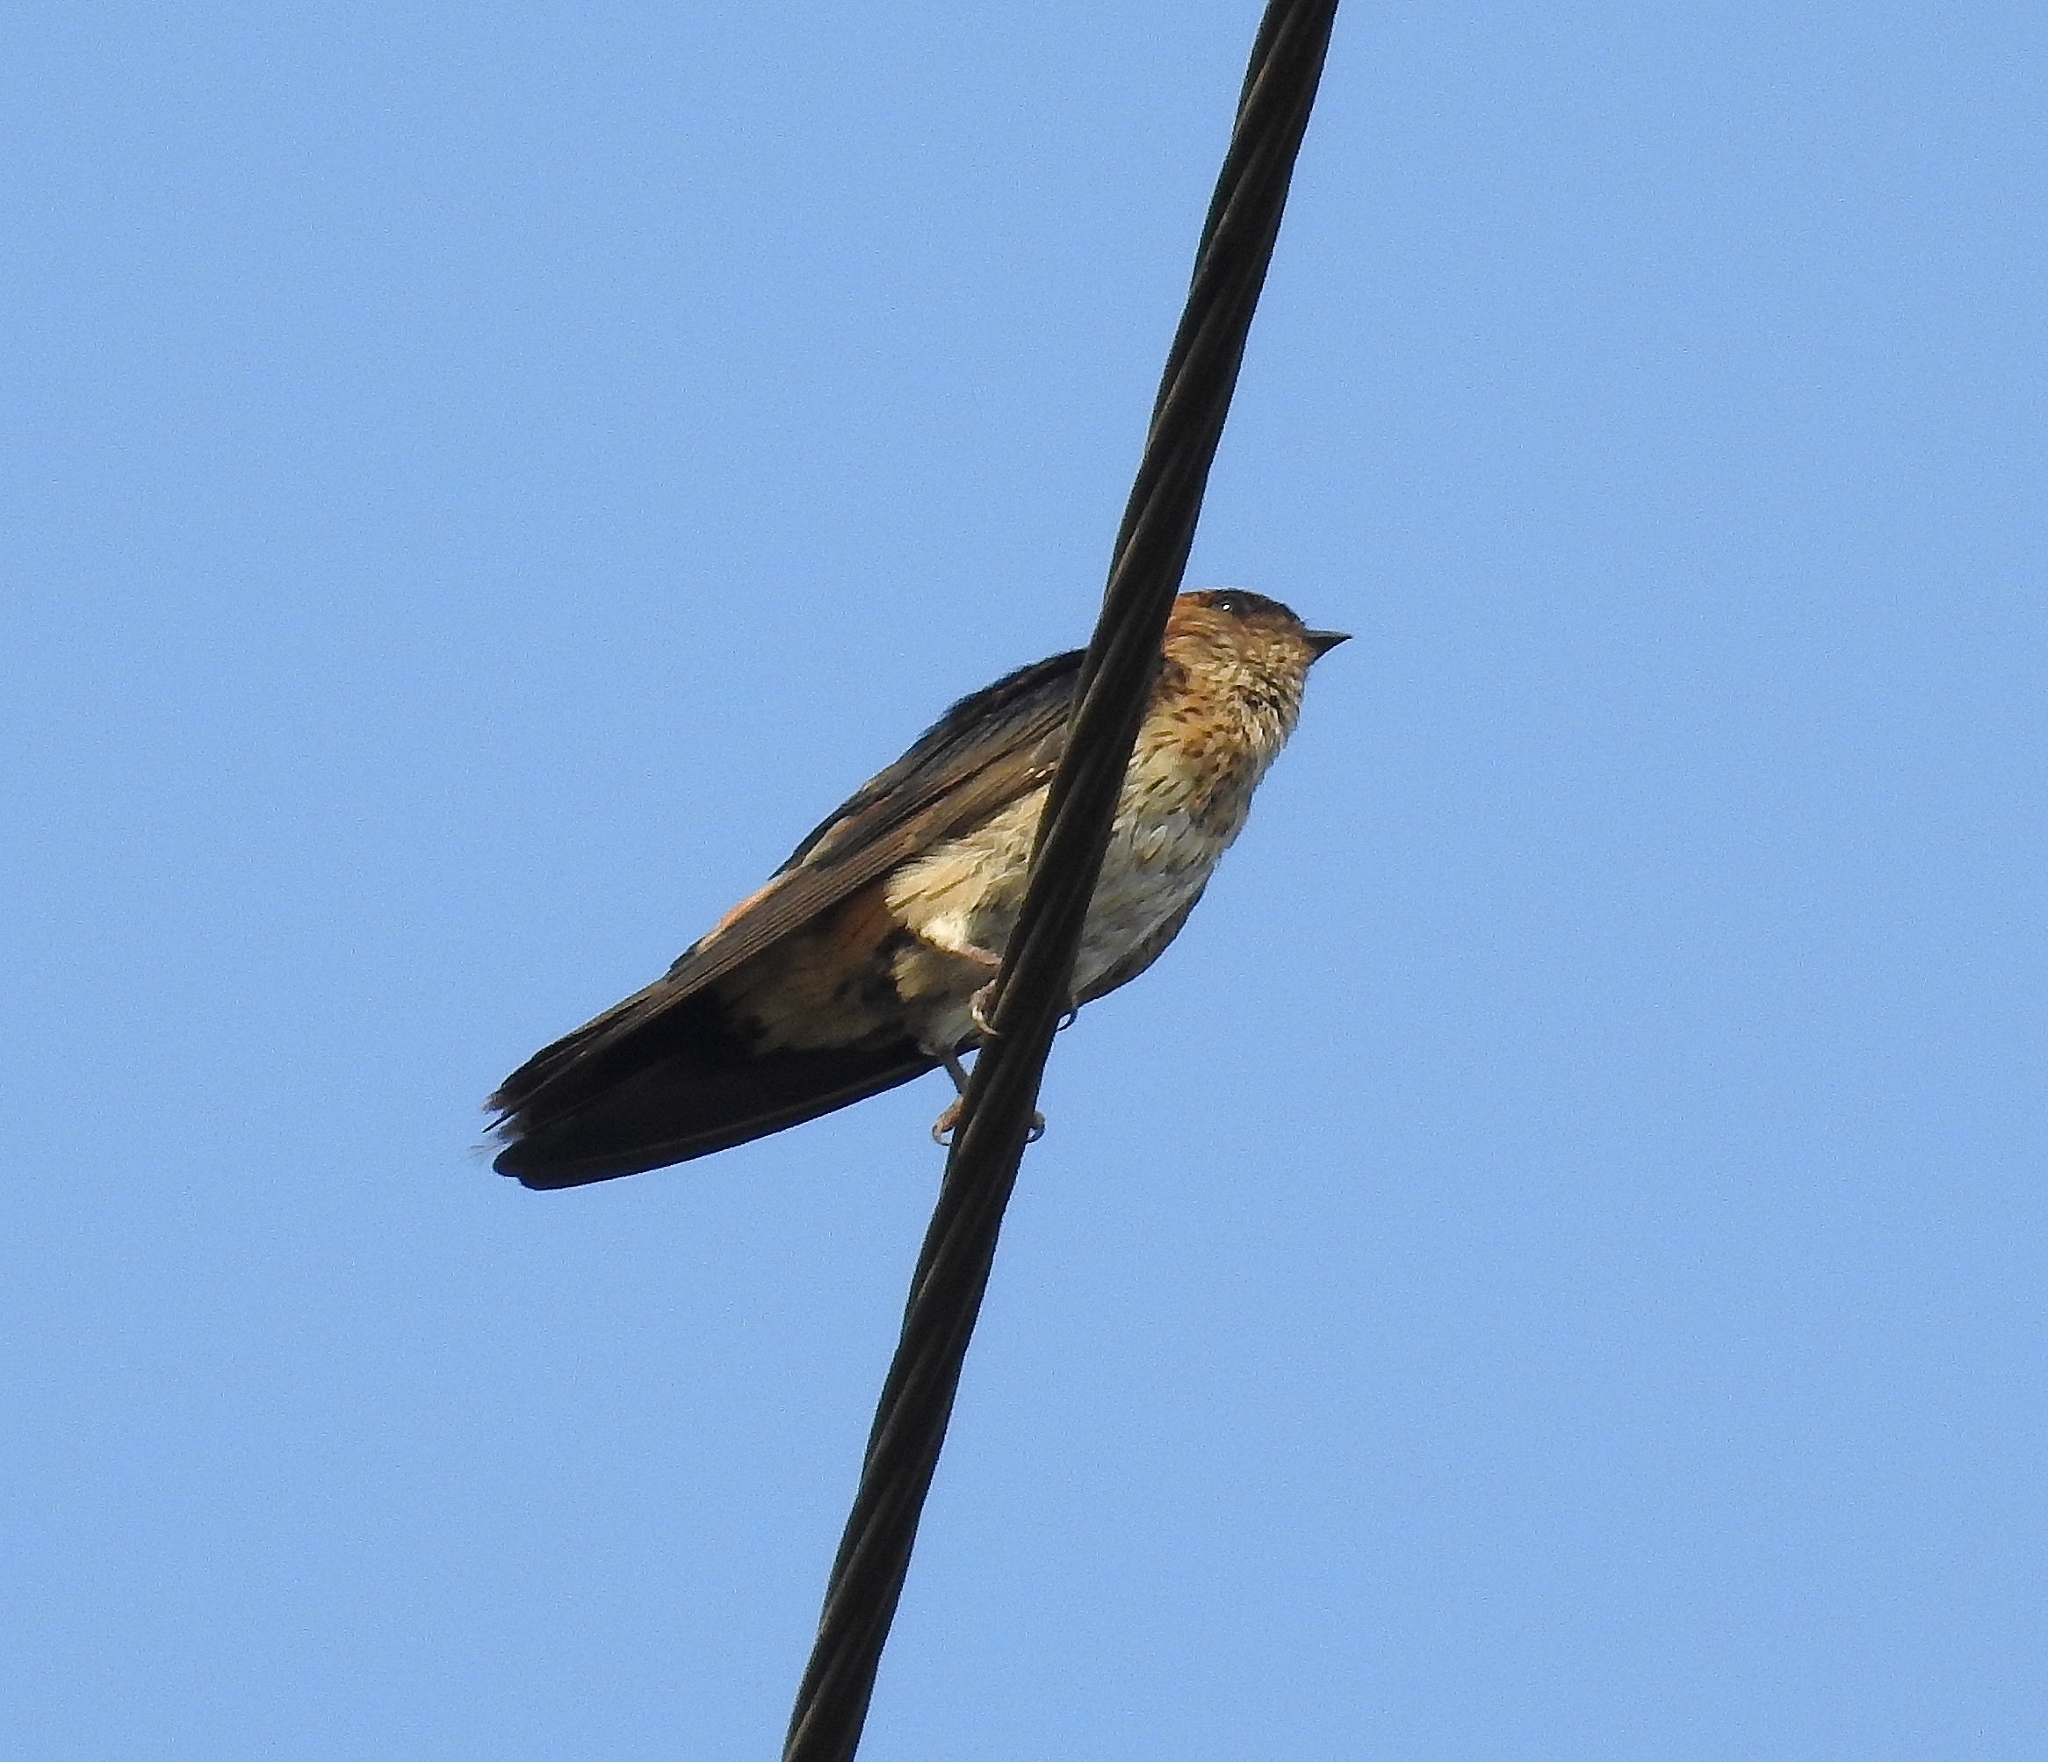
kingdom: Animalia
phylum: Chordata
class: Aves
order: Passeriformes
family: Hirundinidae
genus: Petrochelidon
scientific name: Petrochelidon fluvicola
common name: Streak-throated swallow
